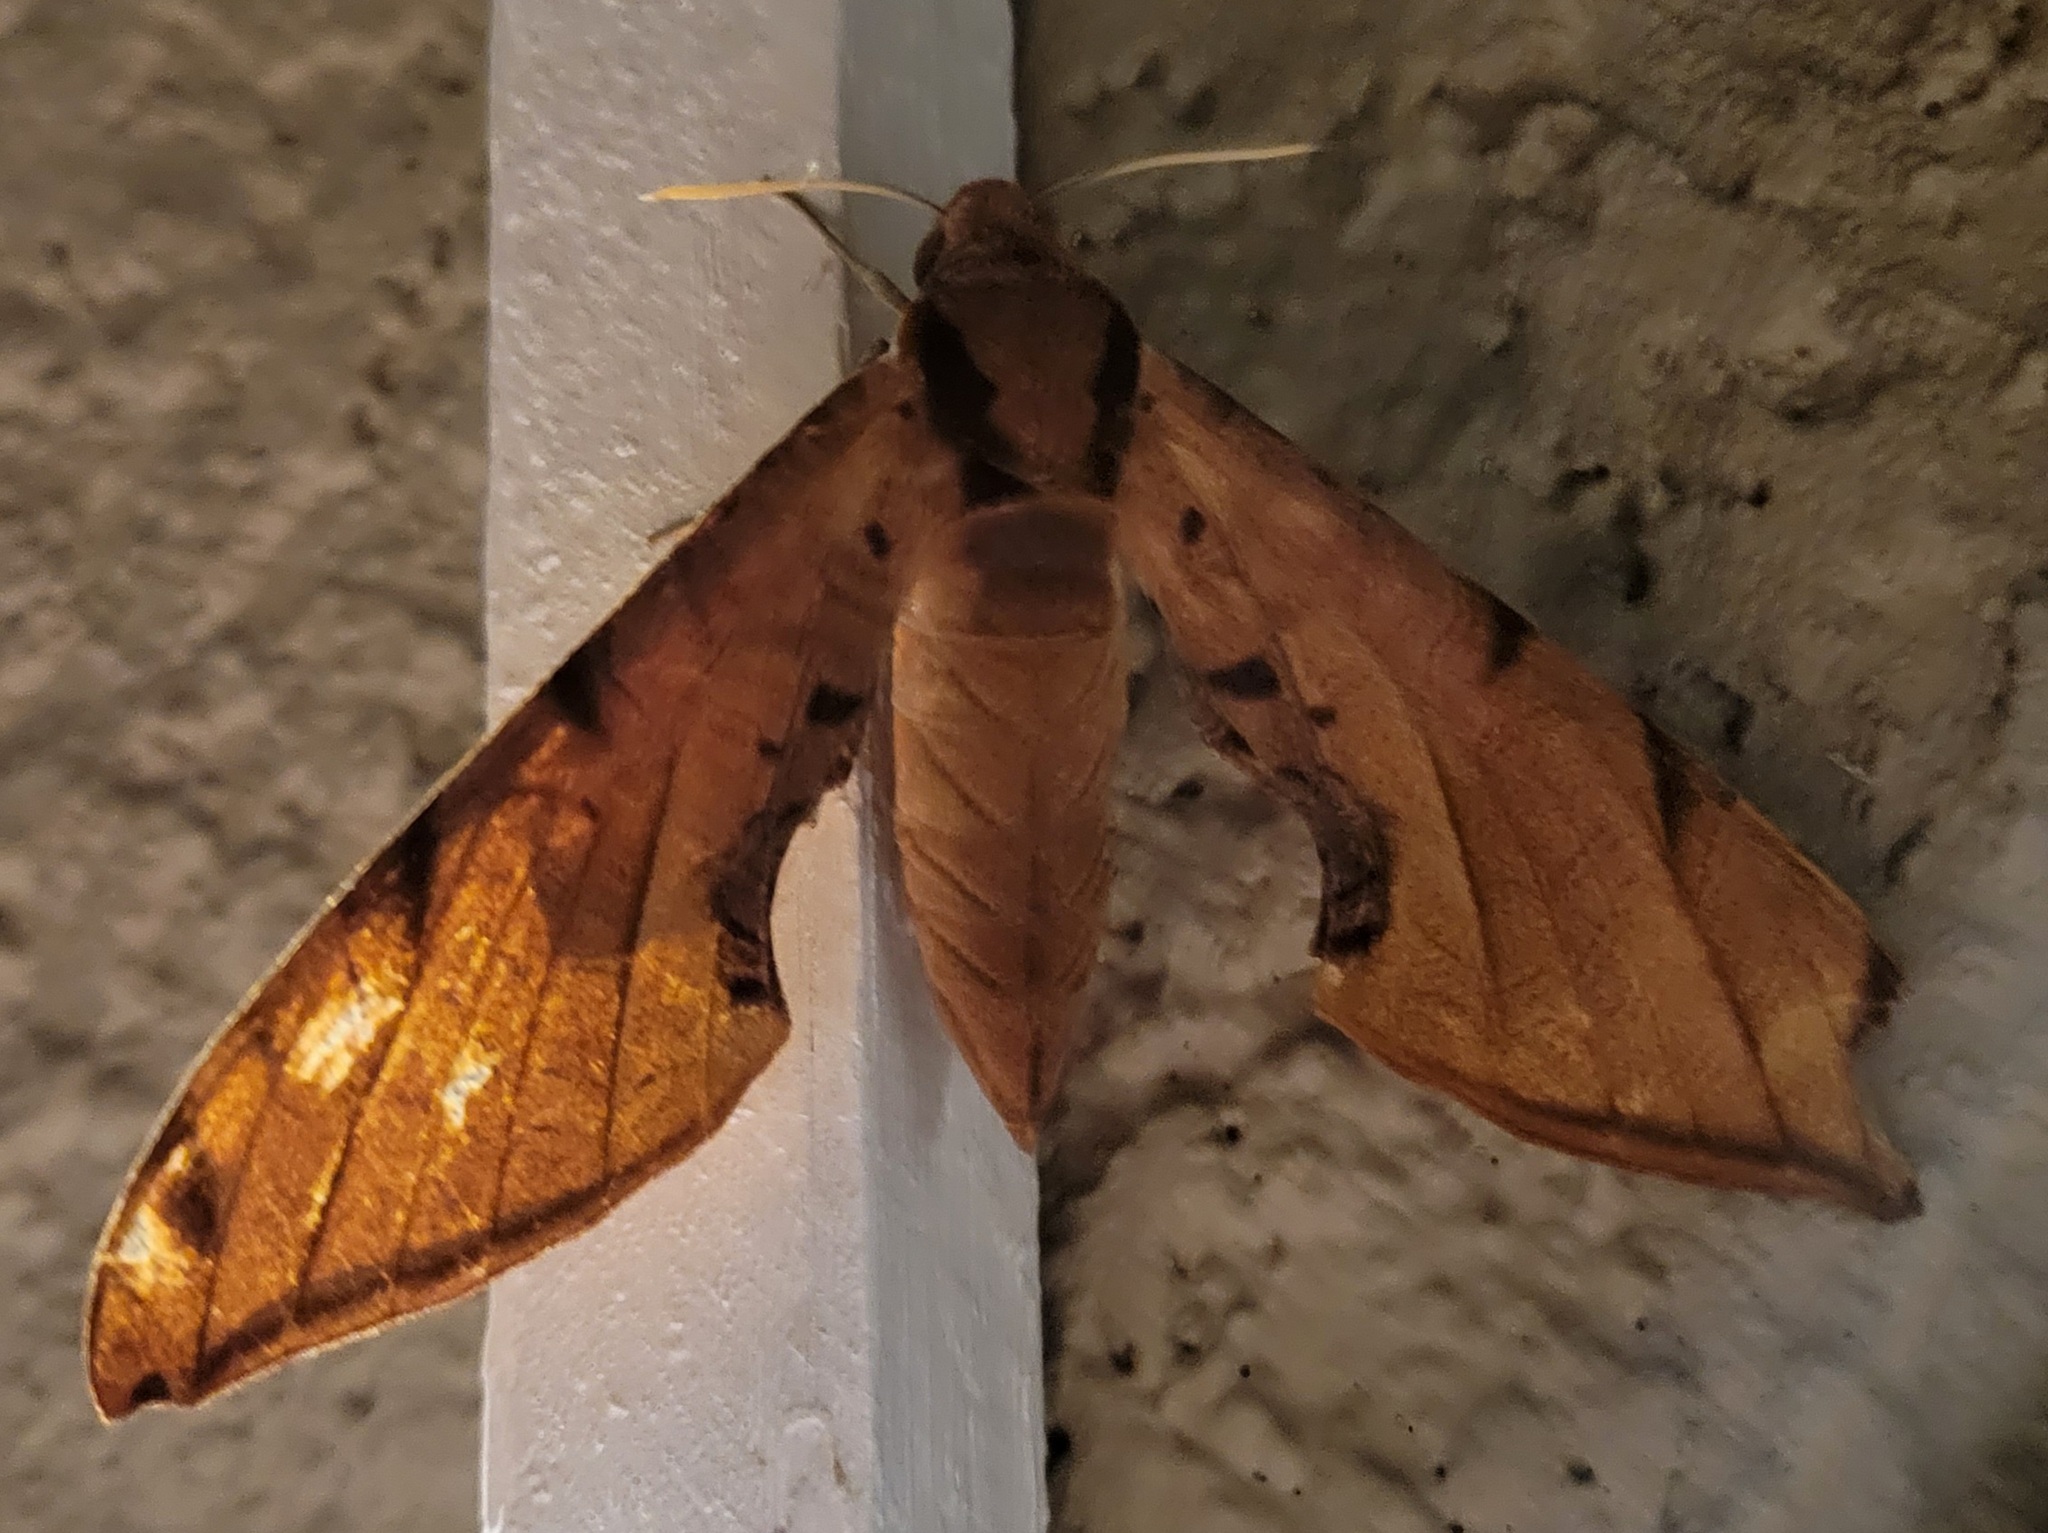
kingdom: Animalia
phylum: Arthropoda
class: Insecta
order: Lepidoptera
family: Sphingidae
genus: Protambulyx
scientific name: Protambulyx strigilis
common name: Streaked sphinx
